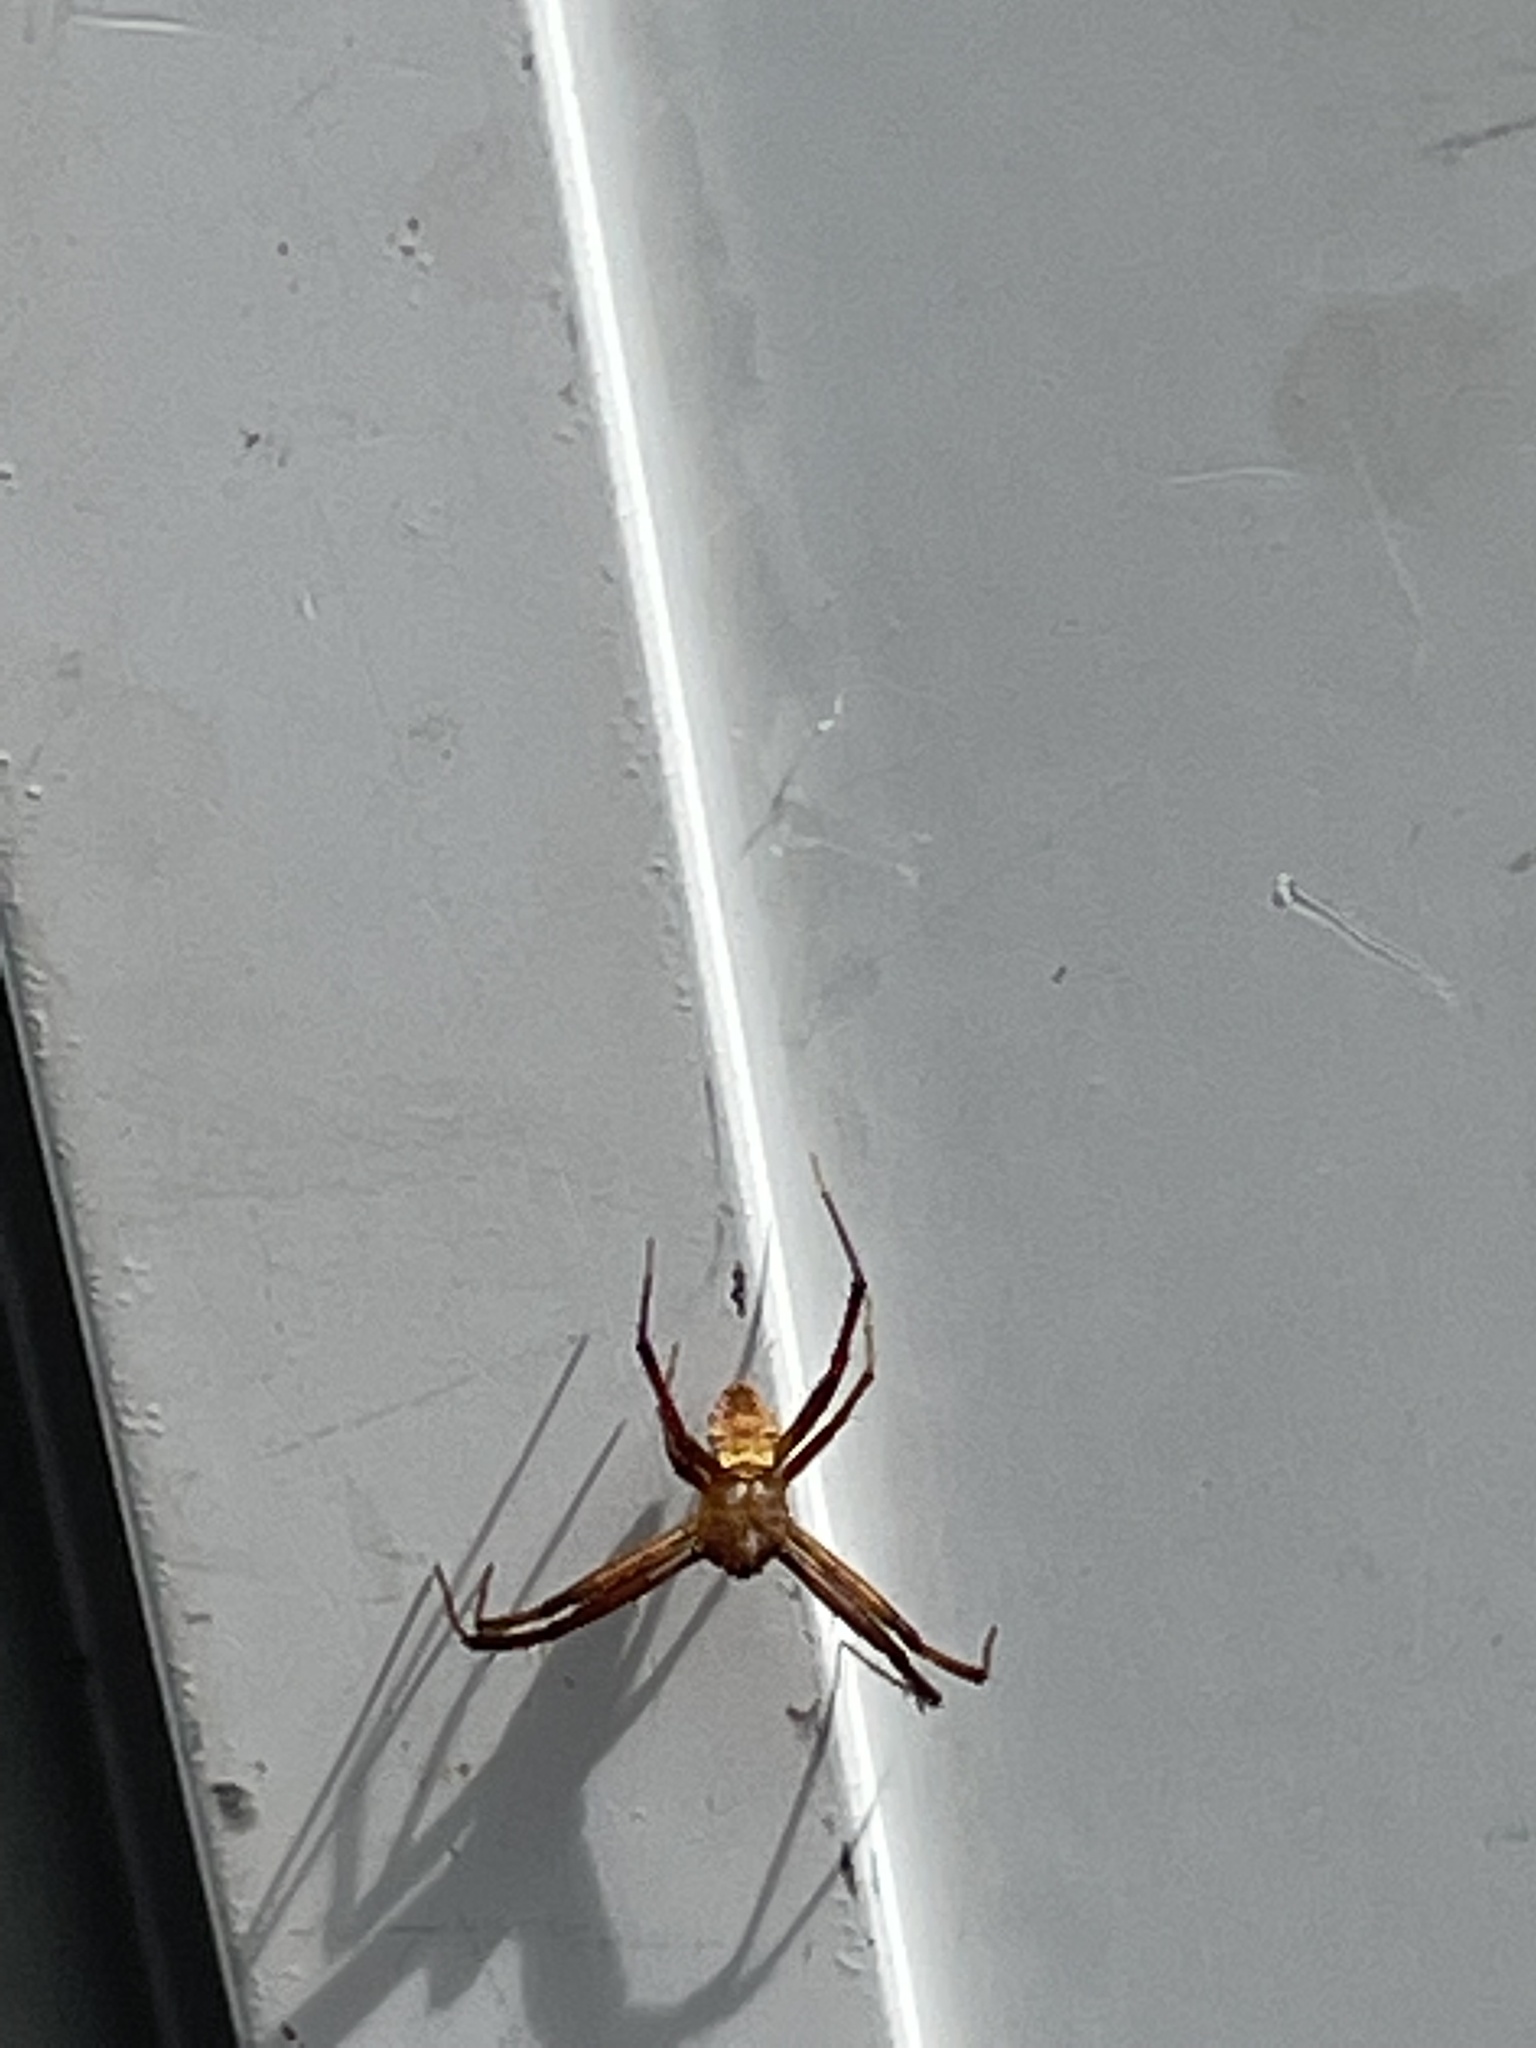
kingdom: Animalia
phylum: Arthropoda
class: Arachnida
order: Araneae
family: Araneidae
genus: Gea
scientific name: Gea heptagon
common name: Orb weavers
